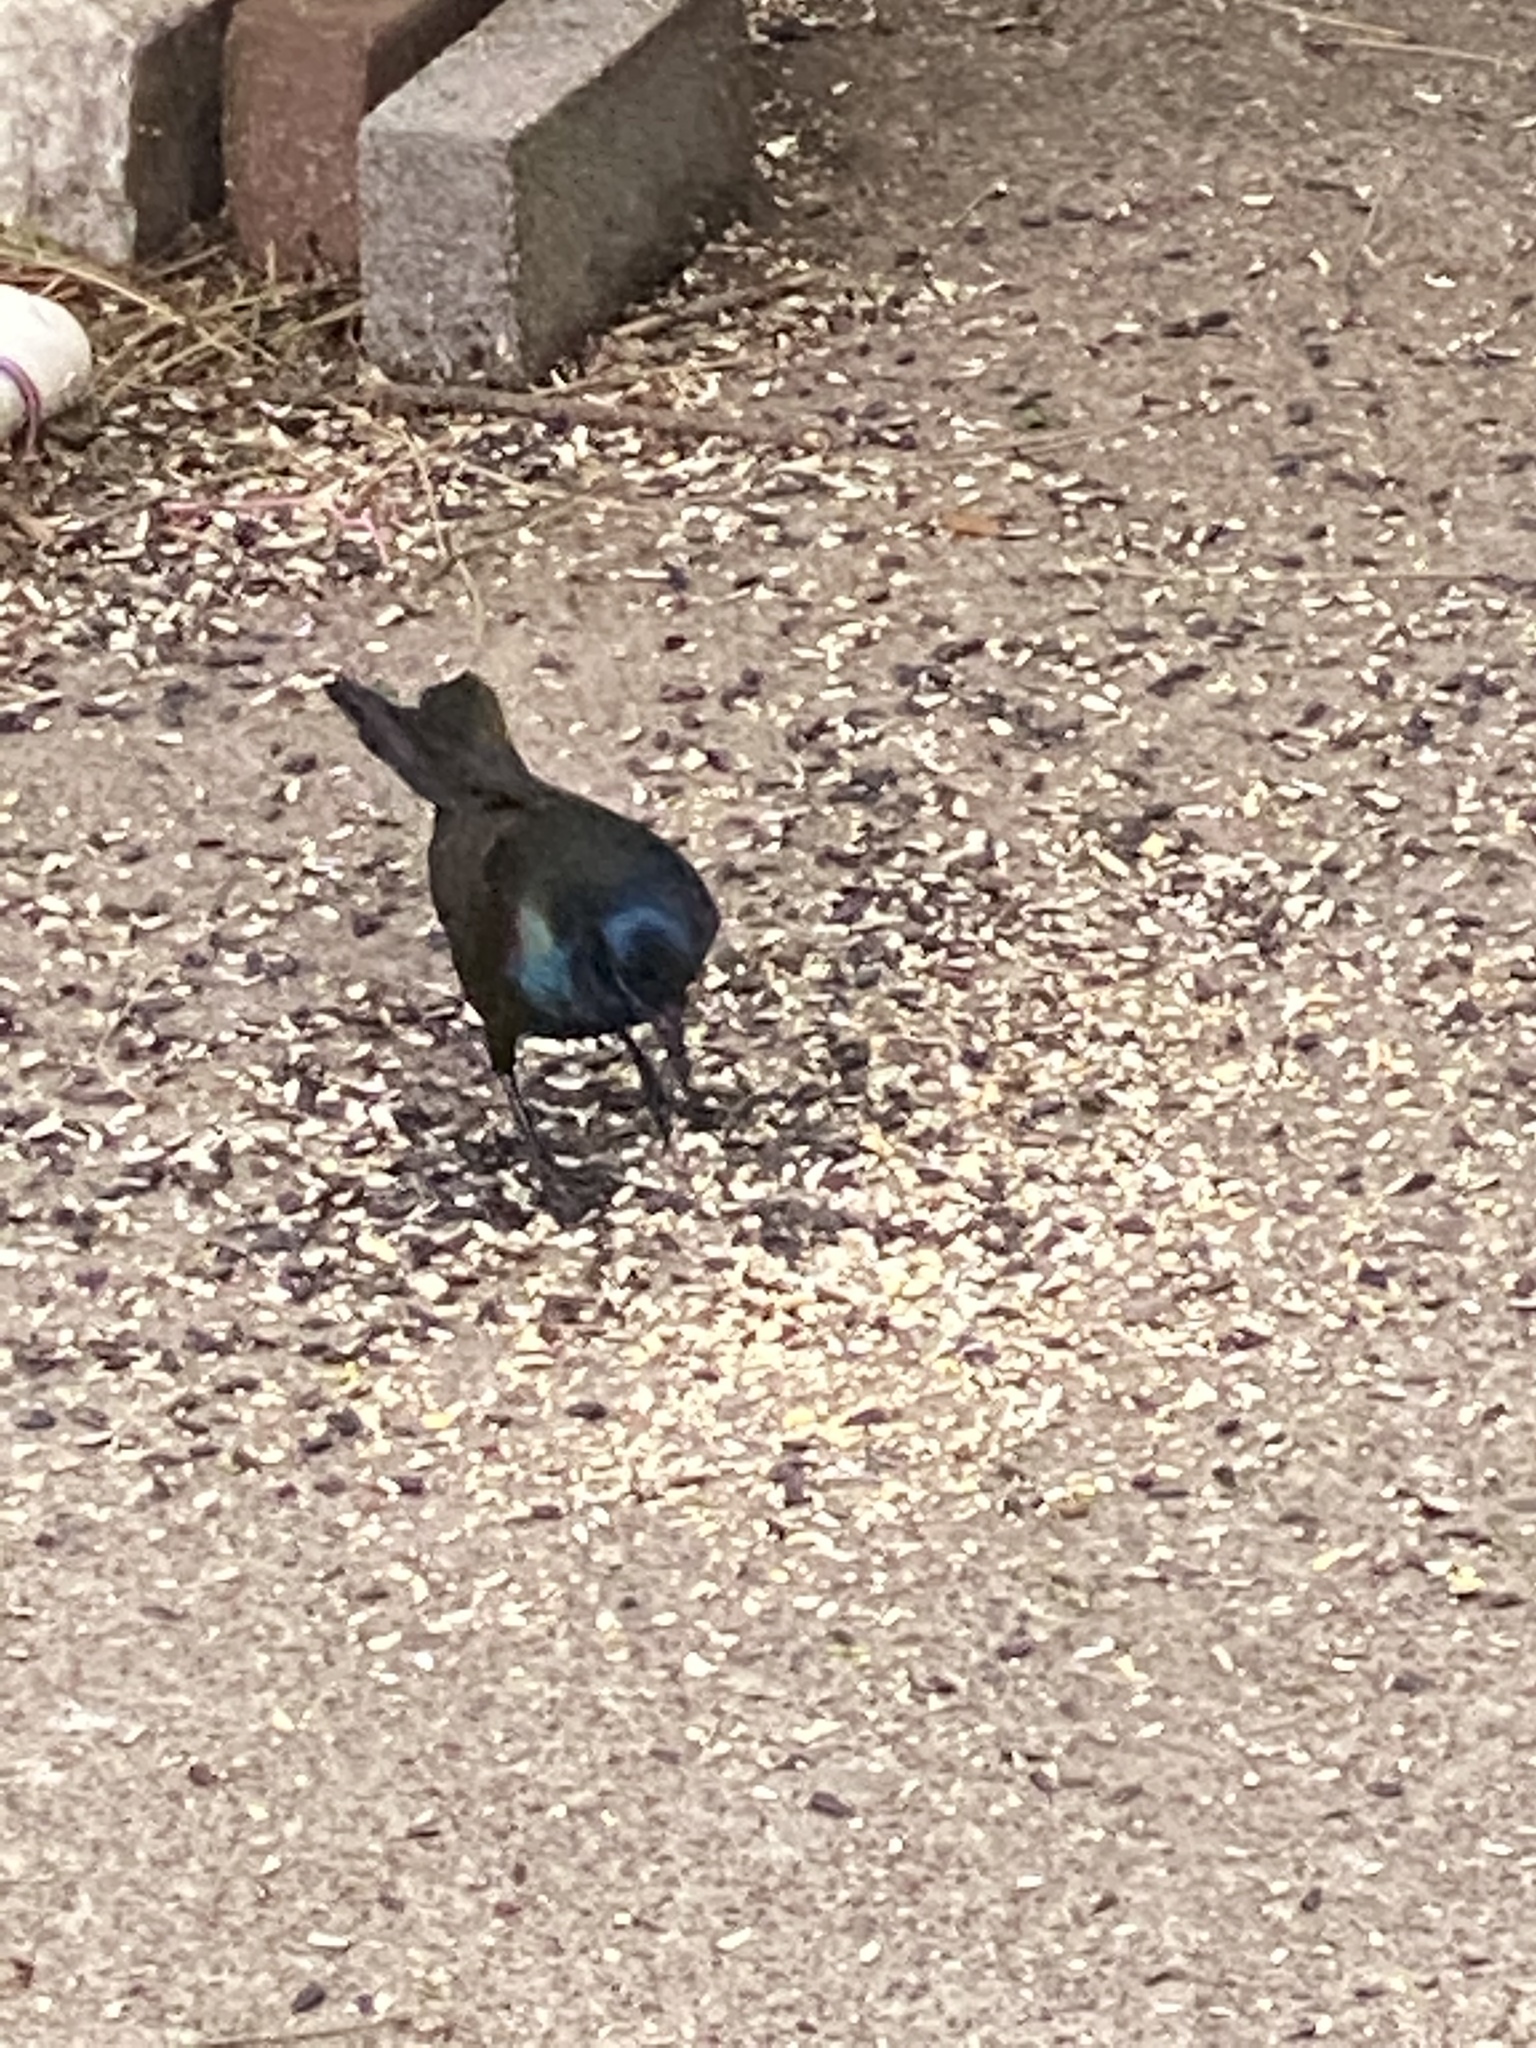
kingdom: Animalia
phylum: Chordata
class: Aves
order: Passeriformes
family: Icteridae
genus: Quiscalus
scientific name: Quiscalus quiscula
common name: Common grackle
